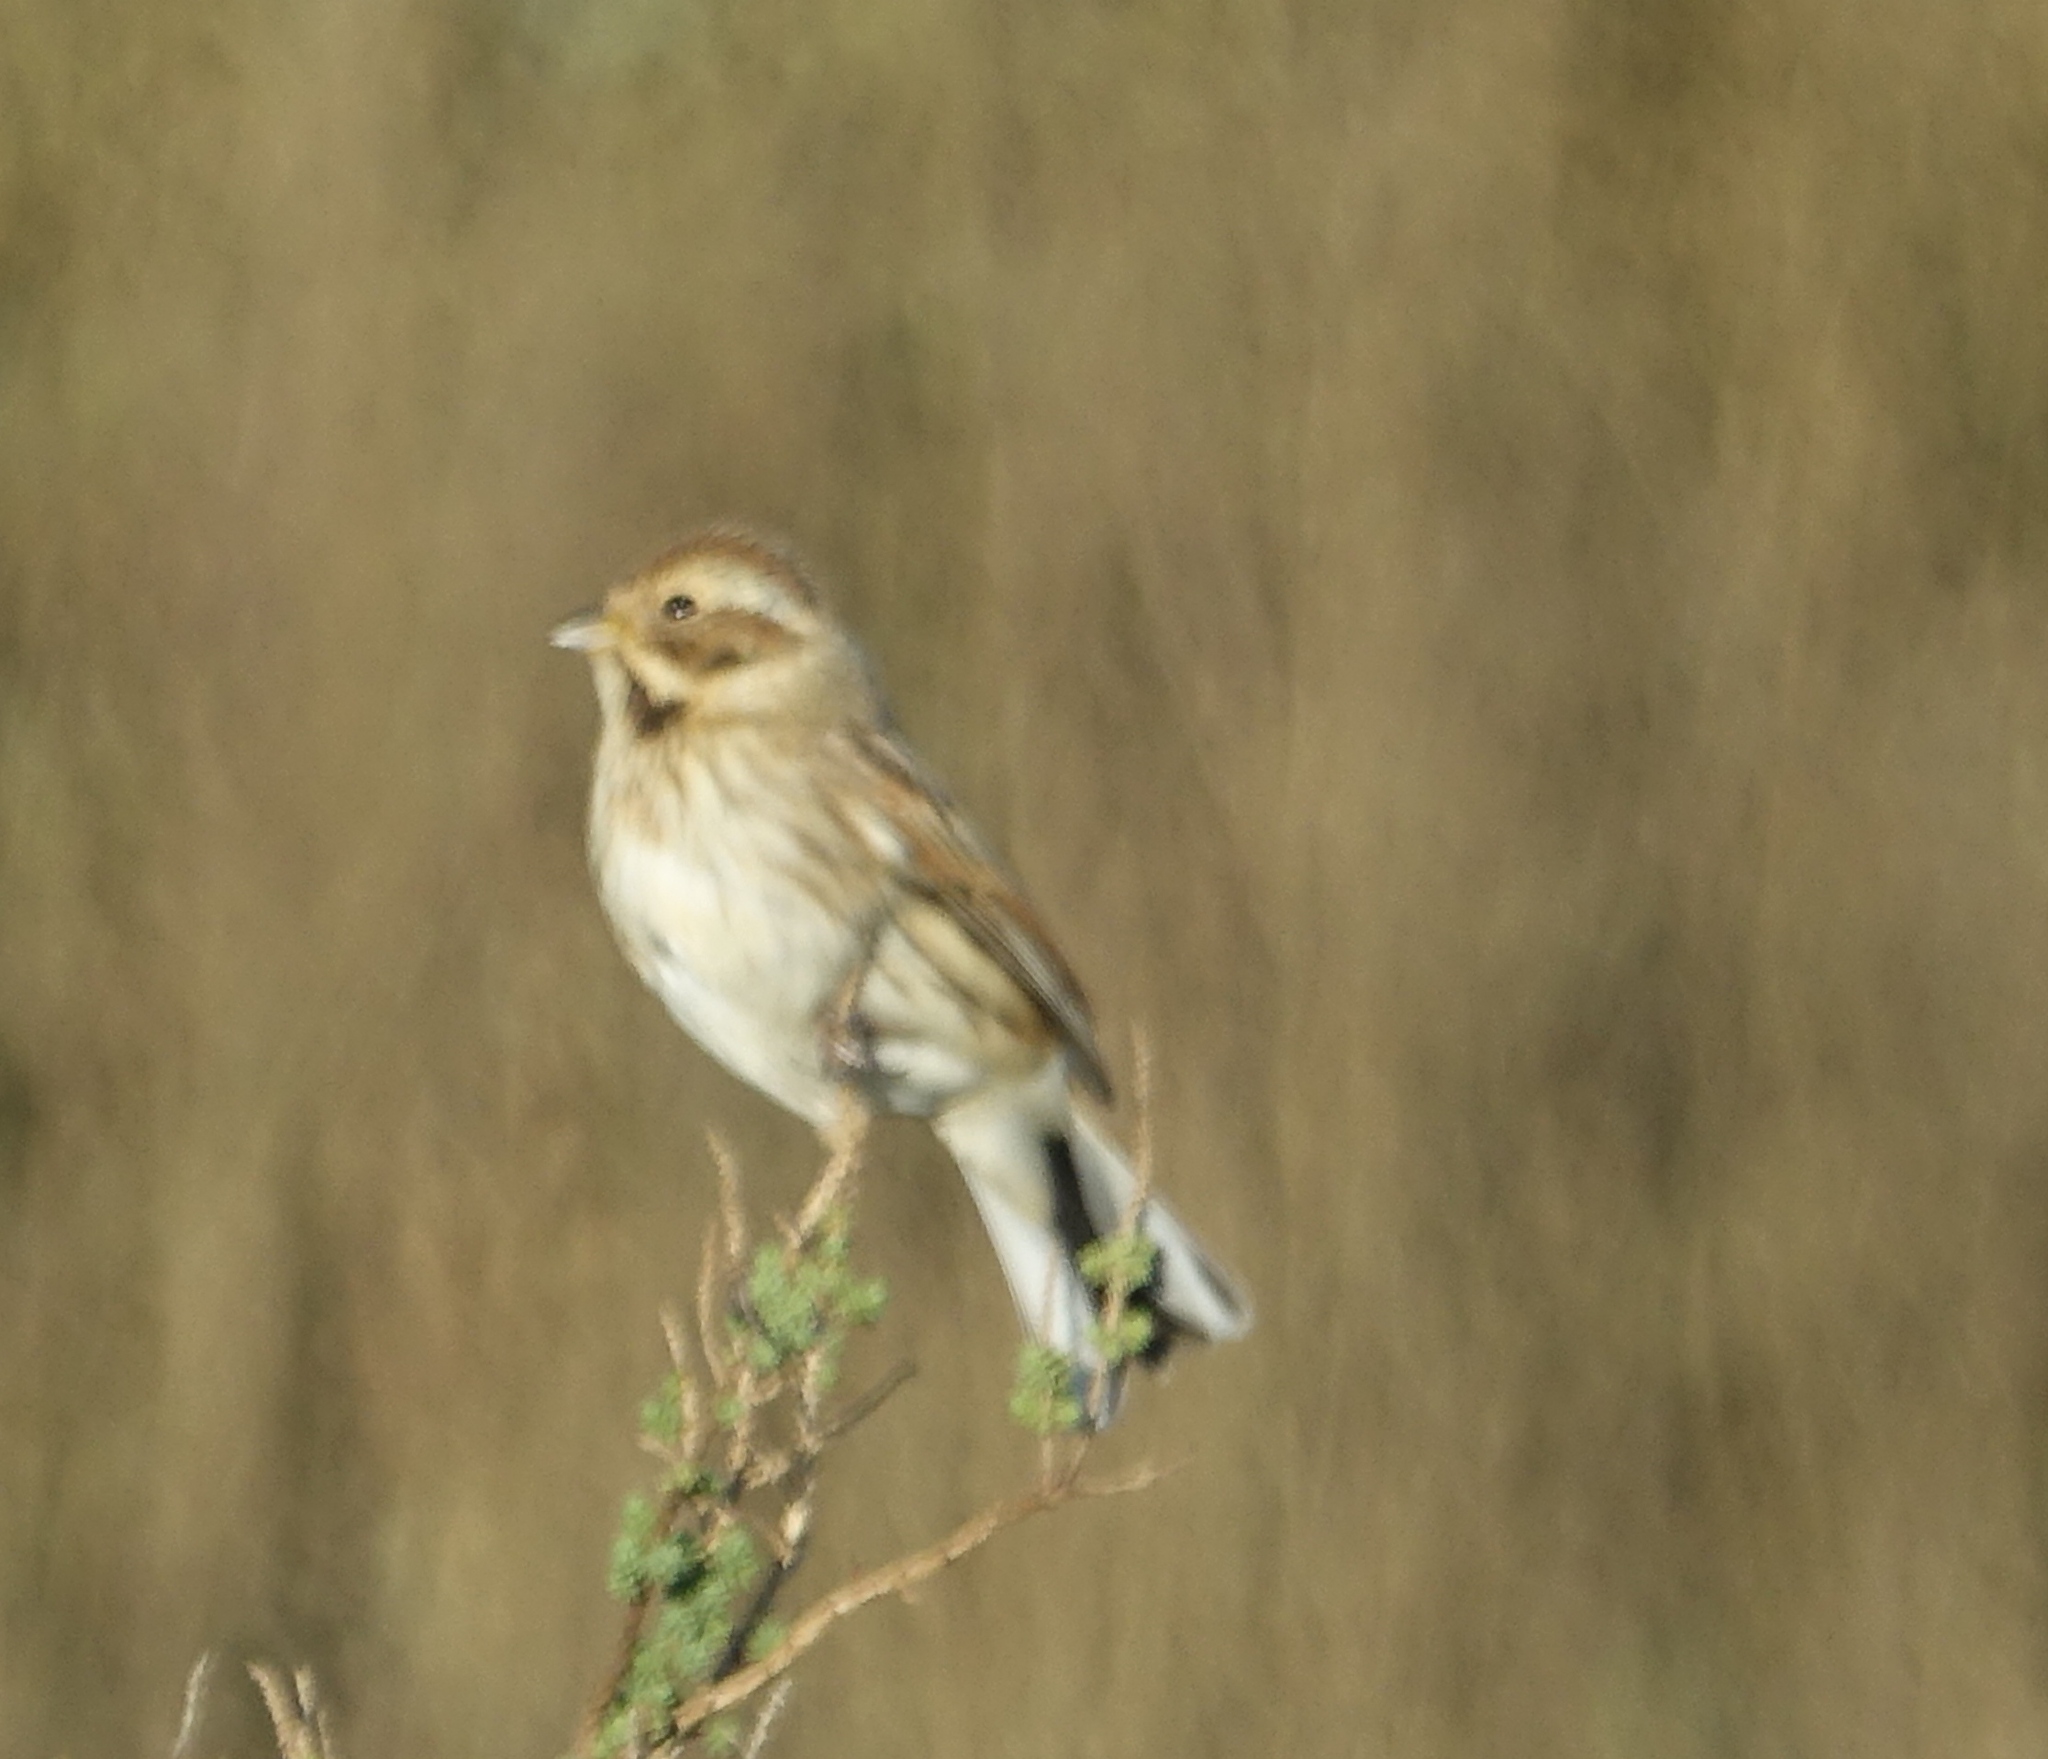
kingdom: Animalia
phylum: Chordata
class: Aves
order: Passeriformes
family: Emberizidae
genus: Emberiza
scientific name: Emberiza schoeniclus
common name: Reed bunting
